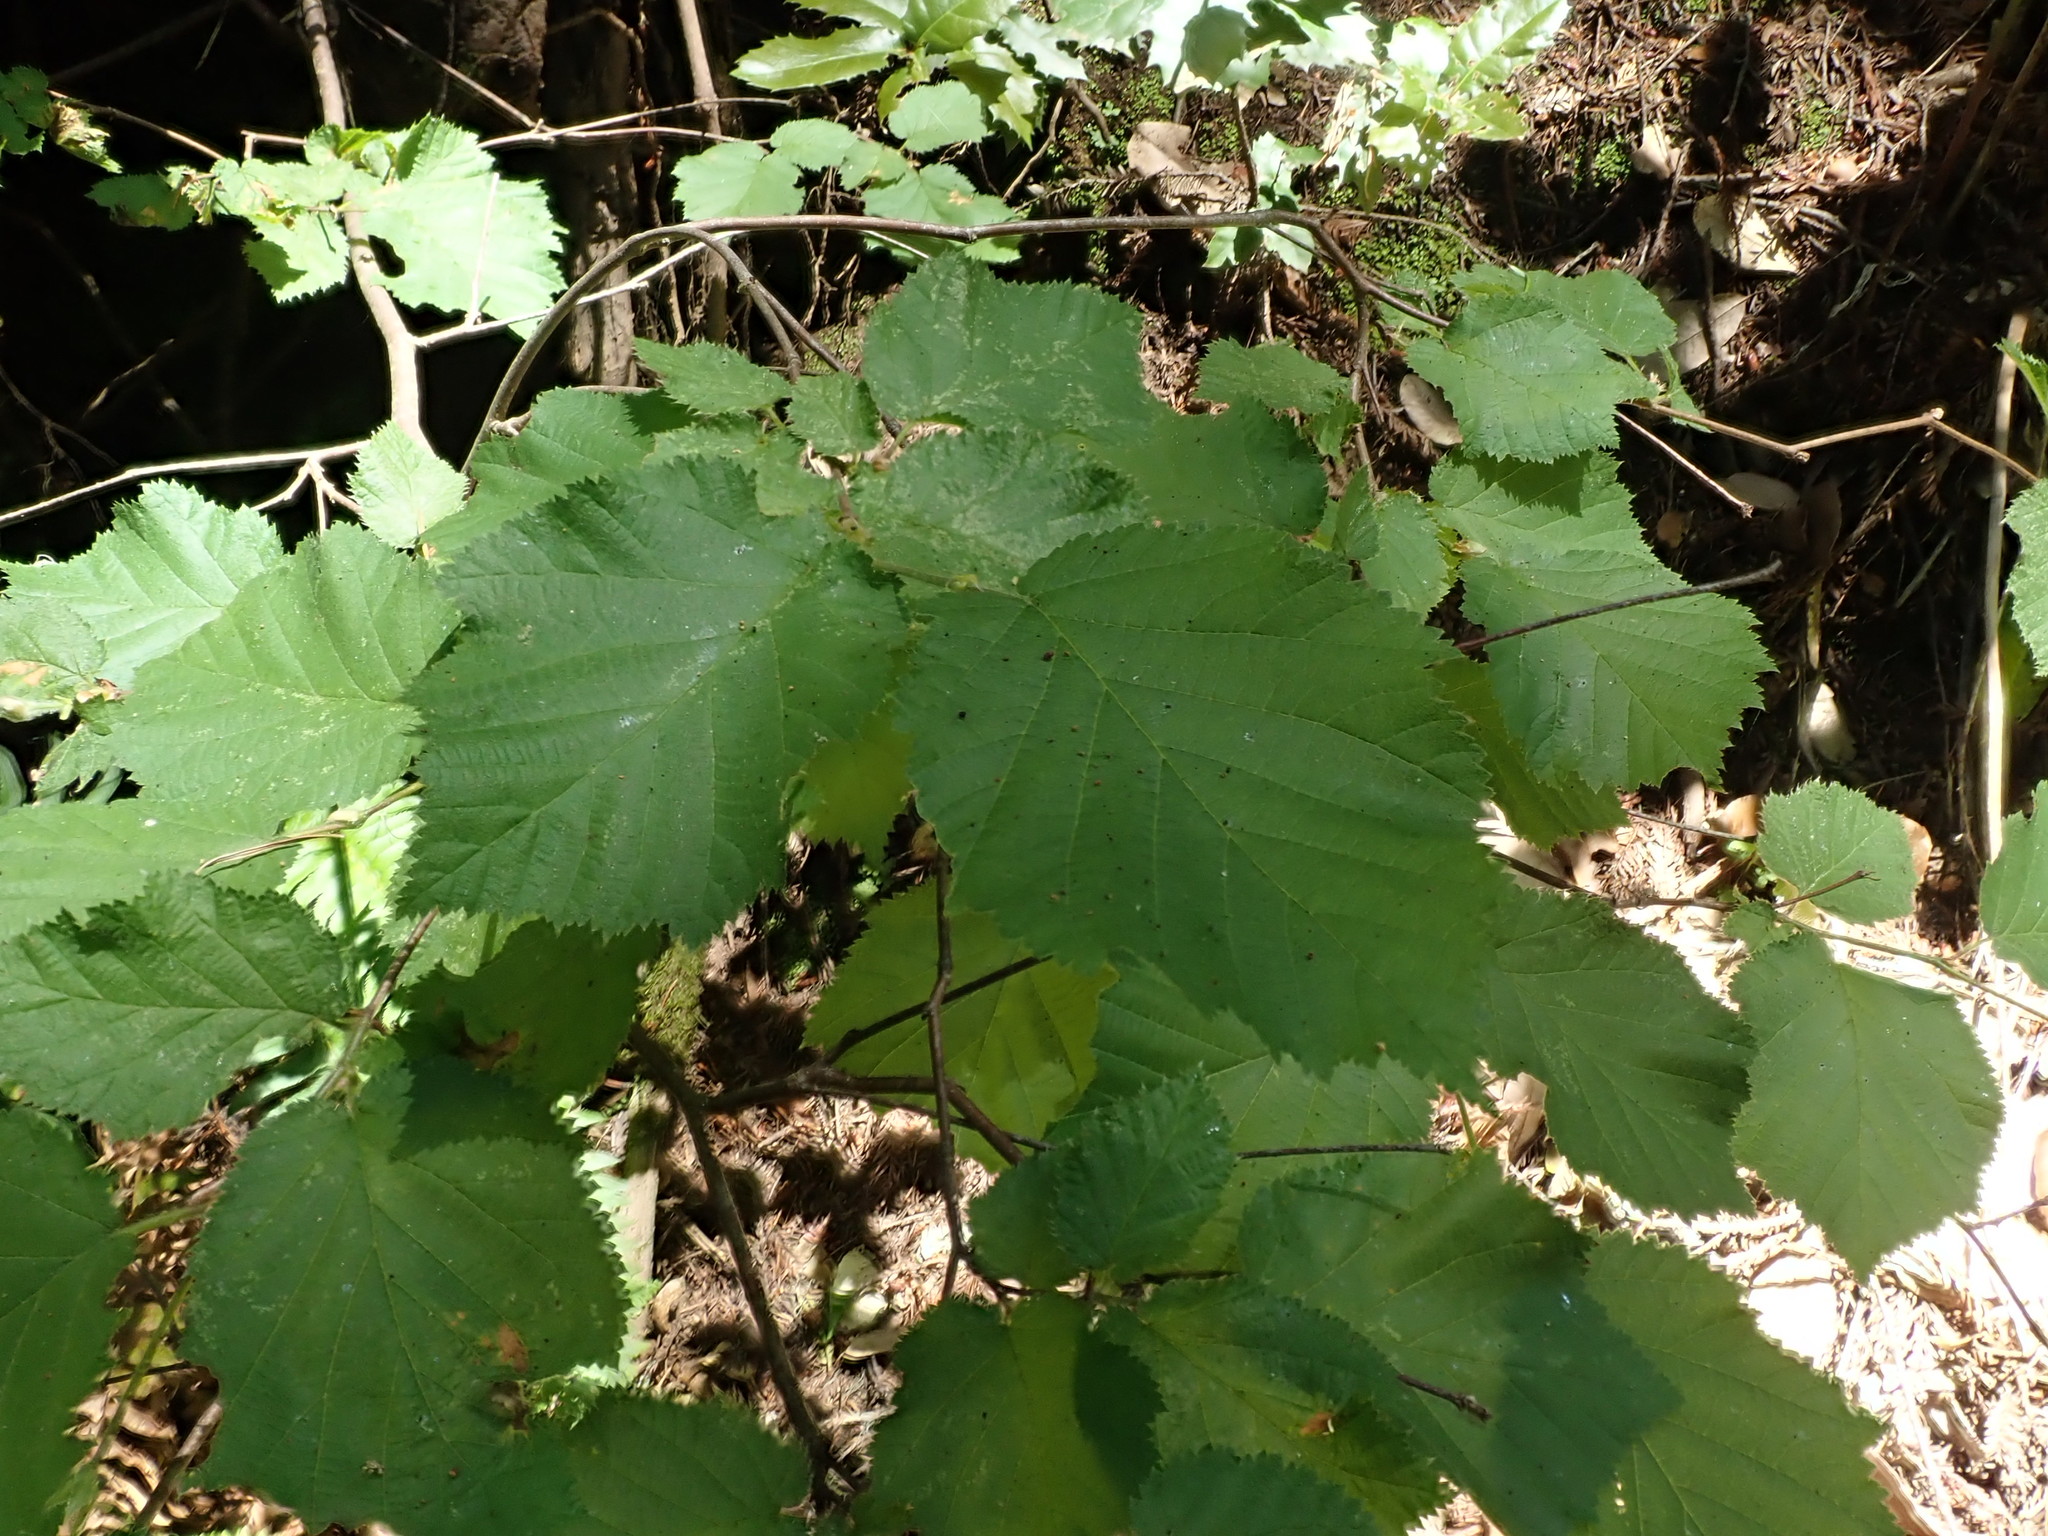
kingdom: Plantae
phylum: Tracheophyta
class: Magnoliopsida
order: Fagales
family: Betulaceae
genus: Corylus
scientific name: Corylus cornuta
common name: Beaked hazel
